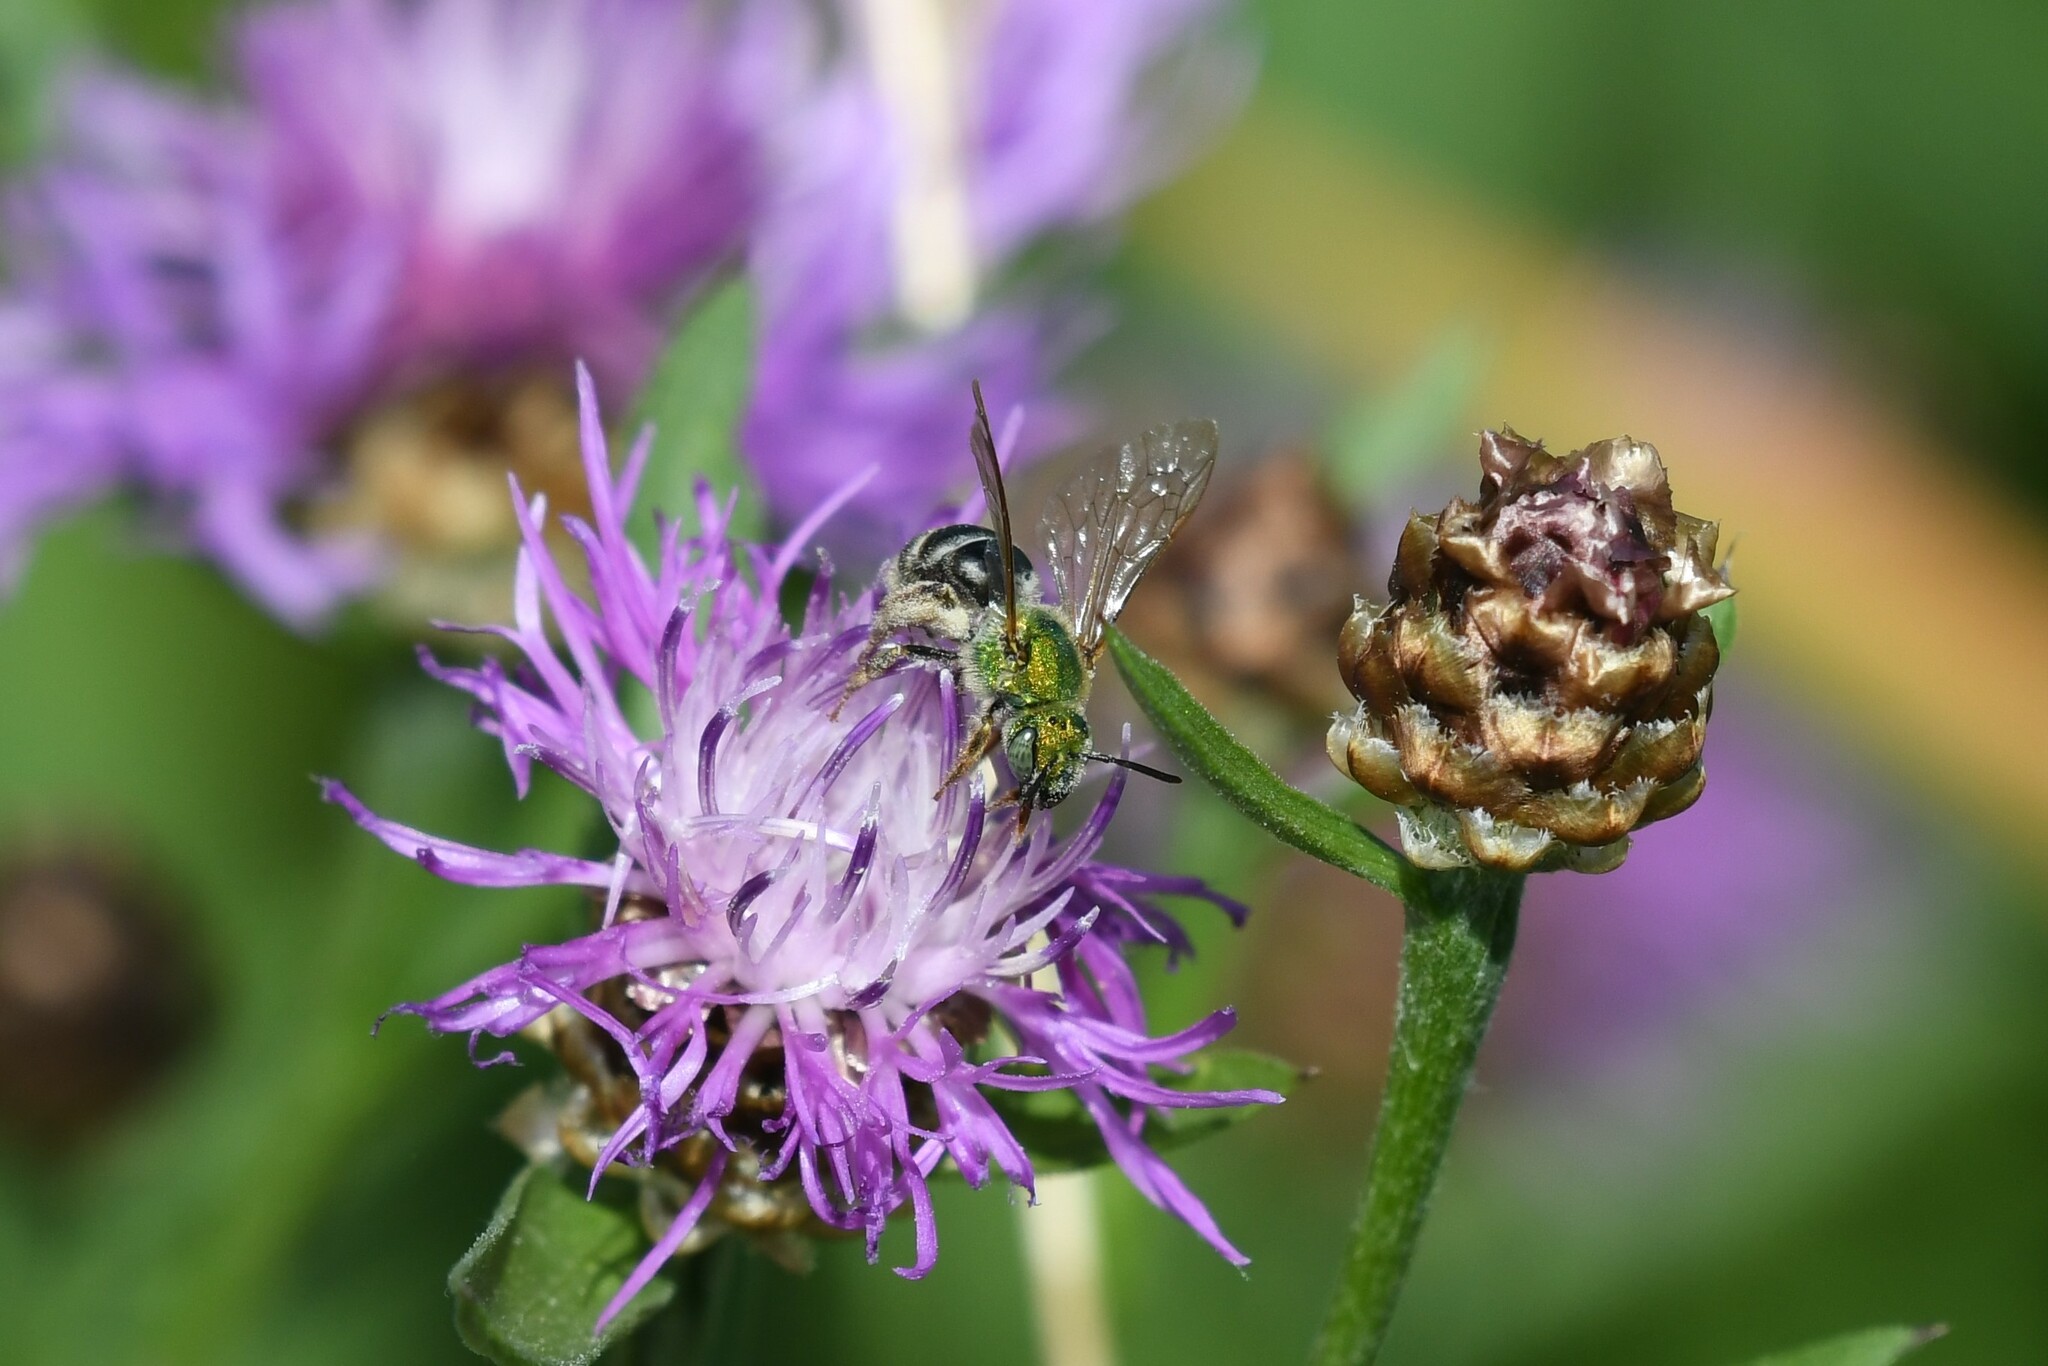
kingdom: Animalia
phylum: Arthropoda
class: Insecta
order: Hymenoptera
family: Halictidae
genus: Agapostemon
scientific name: Agapostemon virescens
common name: Bicolored striped sweat bee
